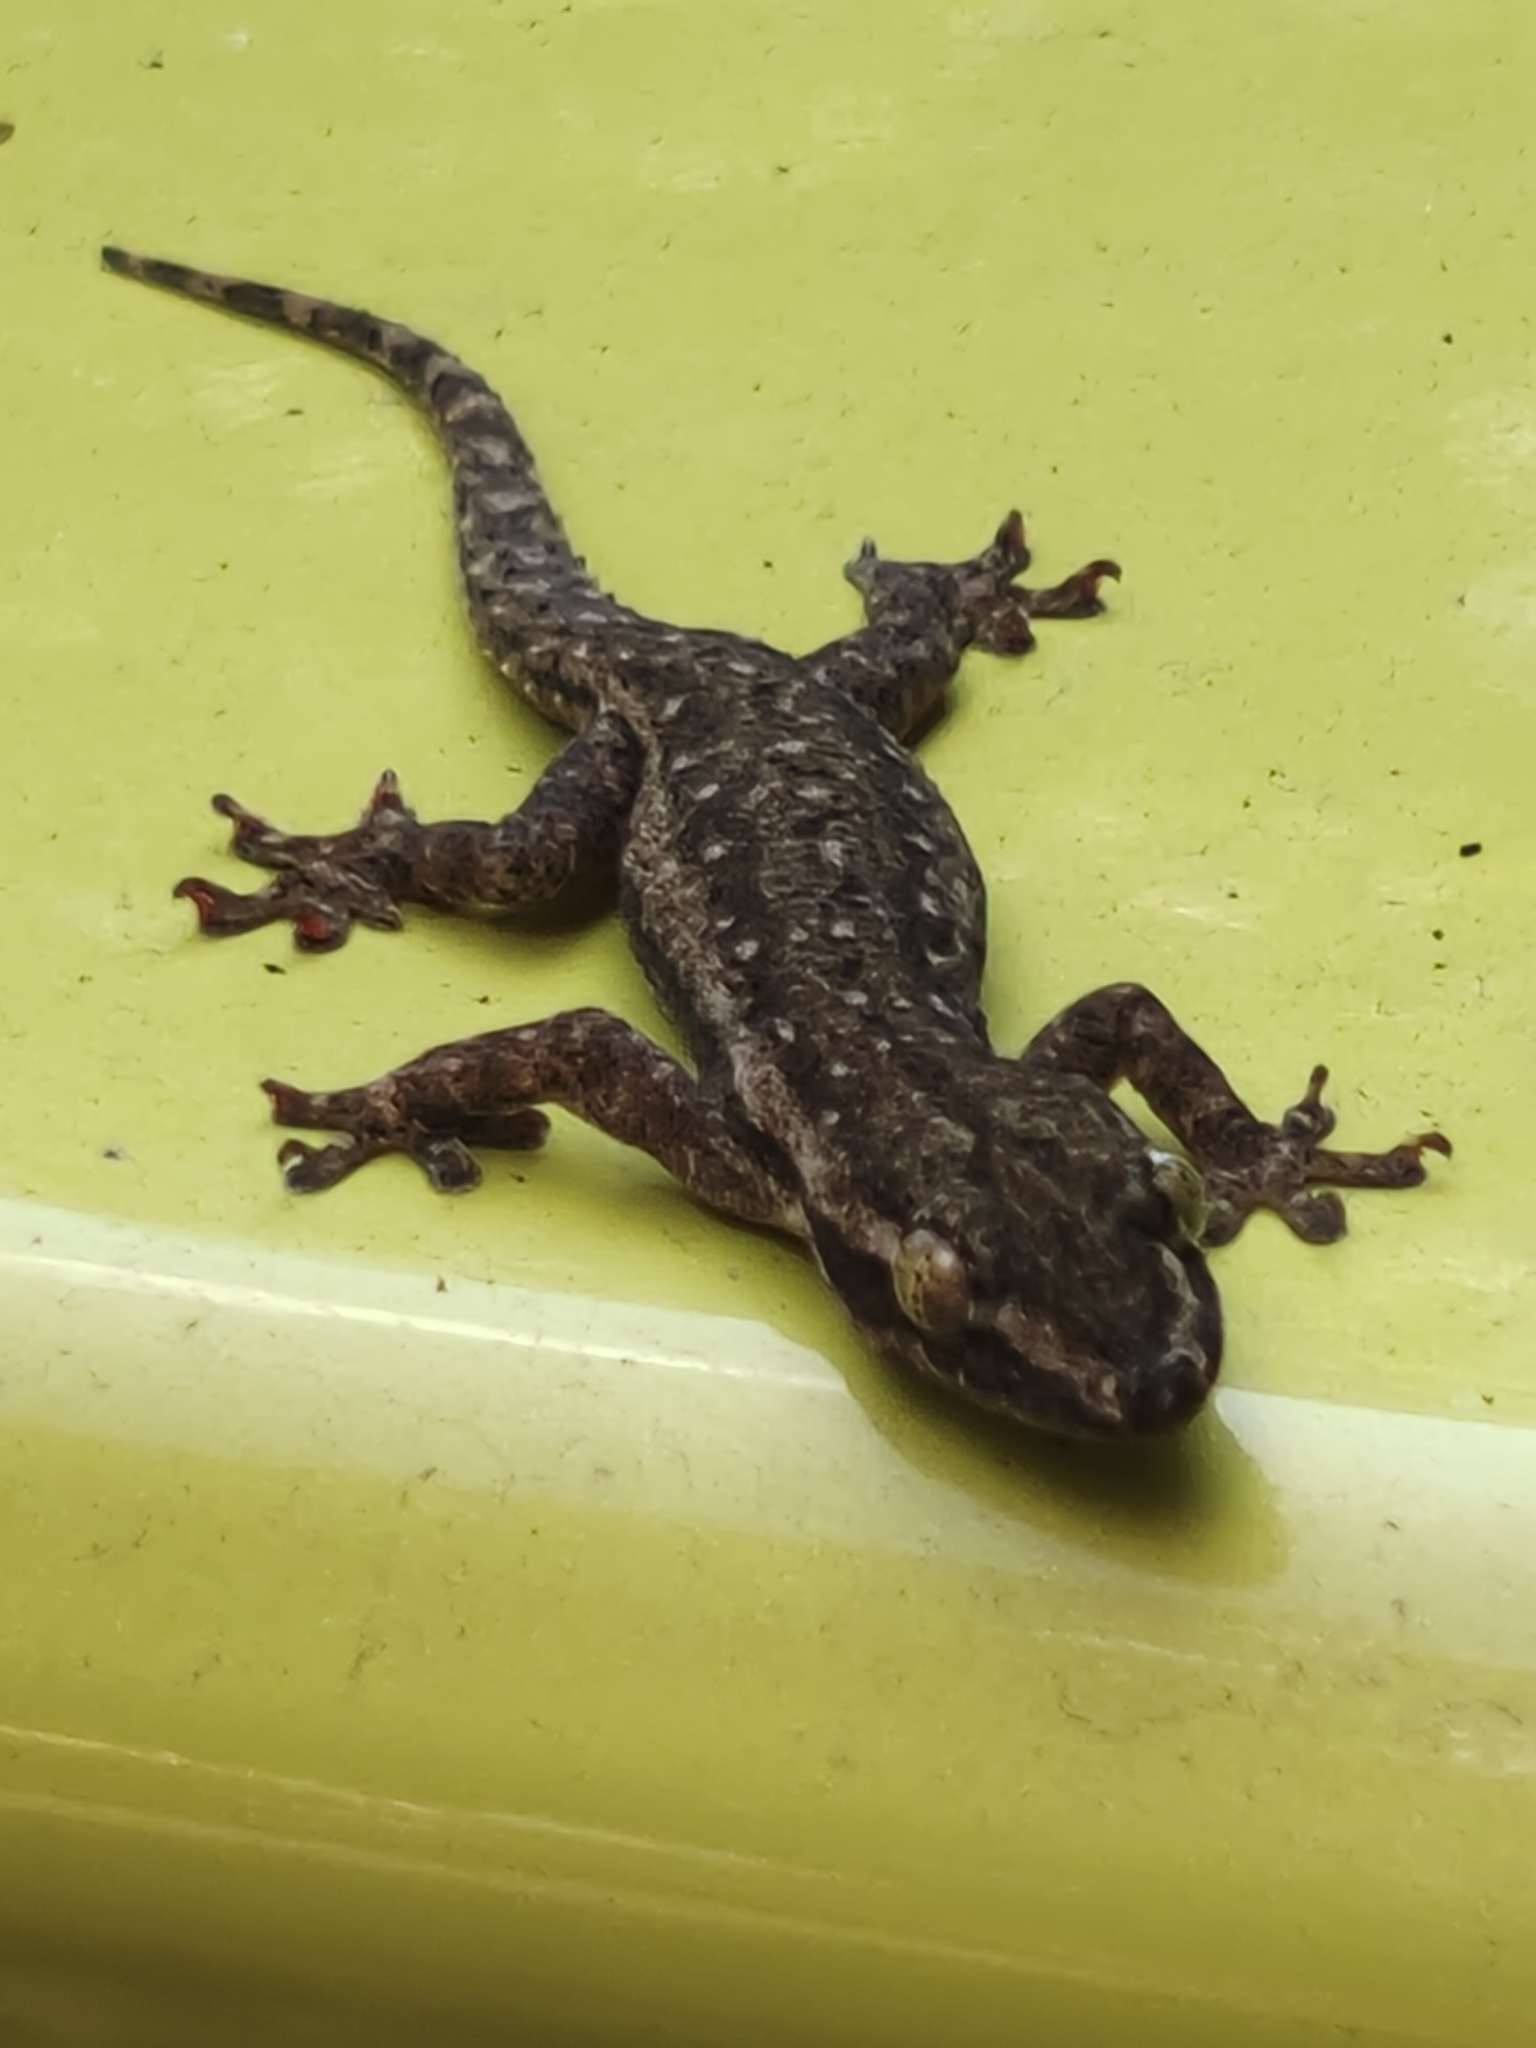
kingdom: Animalia
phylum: Chordata
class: Squamata
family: Gekkonidae
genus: Hemidactylus
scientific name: Hemidactylus frenatus
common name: Common house gecko
